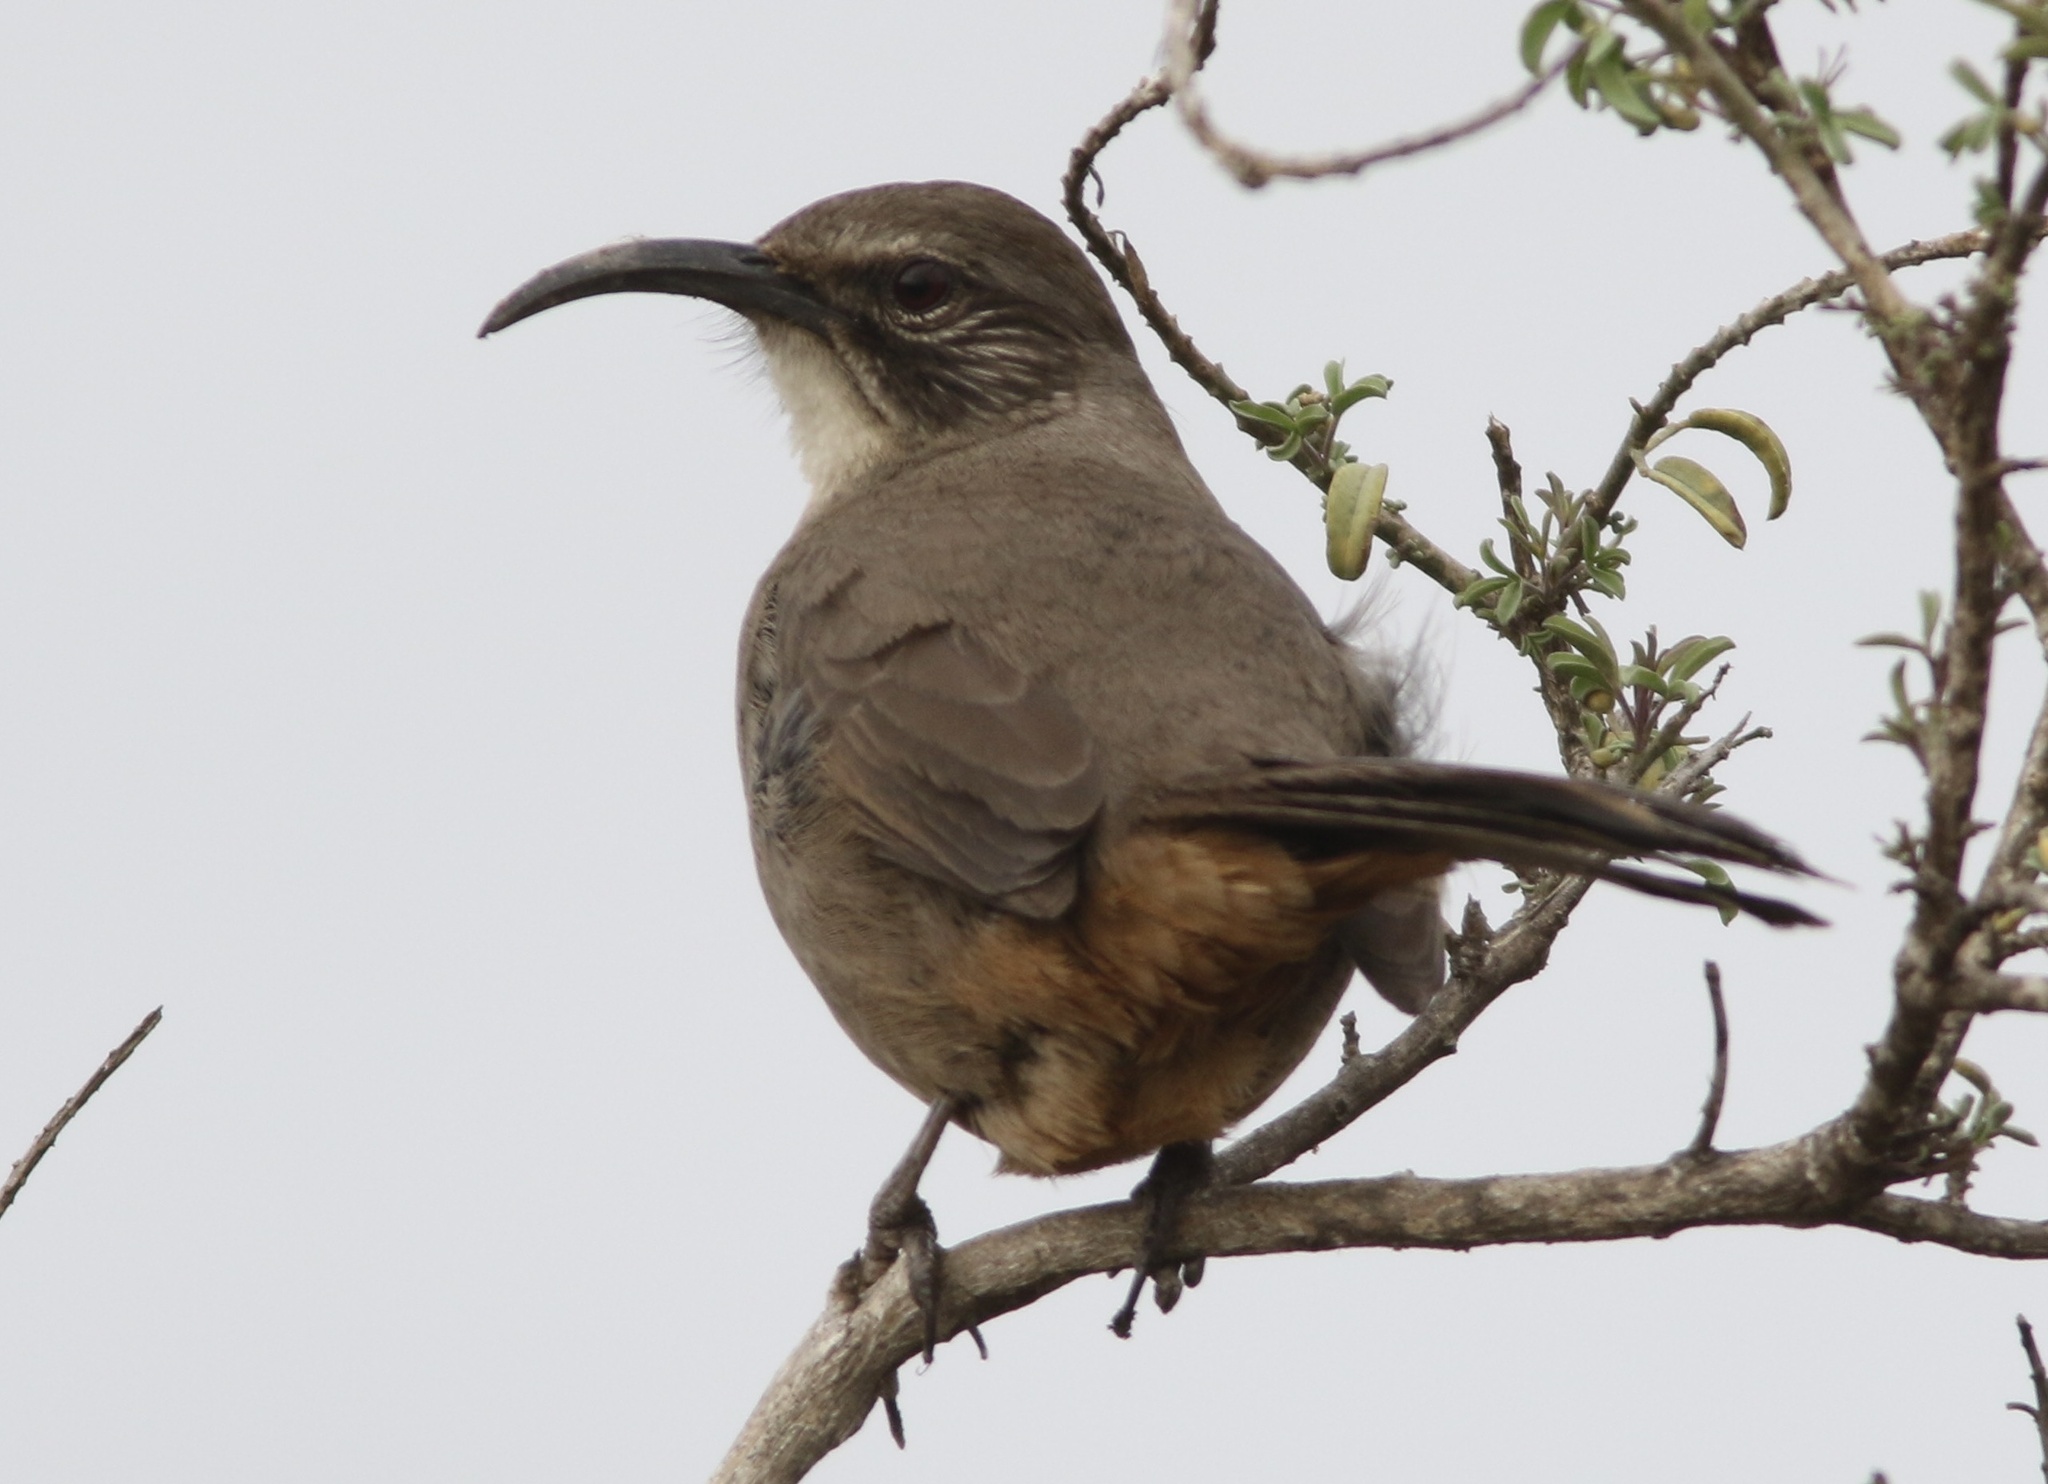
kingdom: Animalia
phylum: Chordata
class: Aves
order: Passeriformes
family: Mimidae
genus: Toxostoma
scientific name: Toxostoma redivivum
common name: California thrasher
